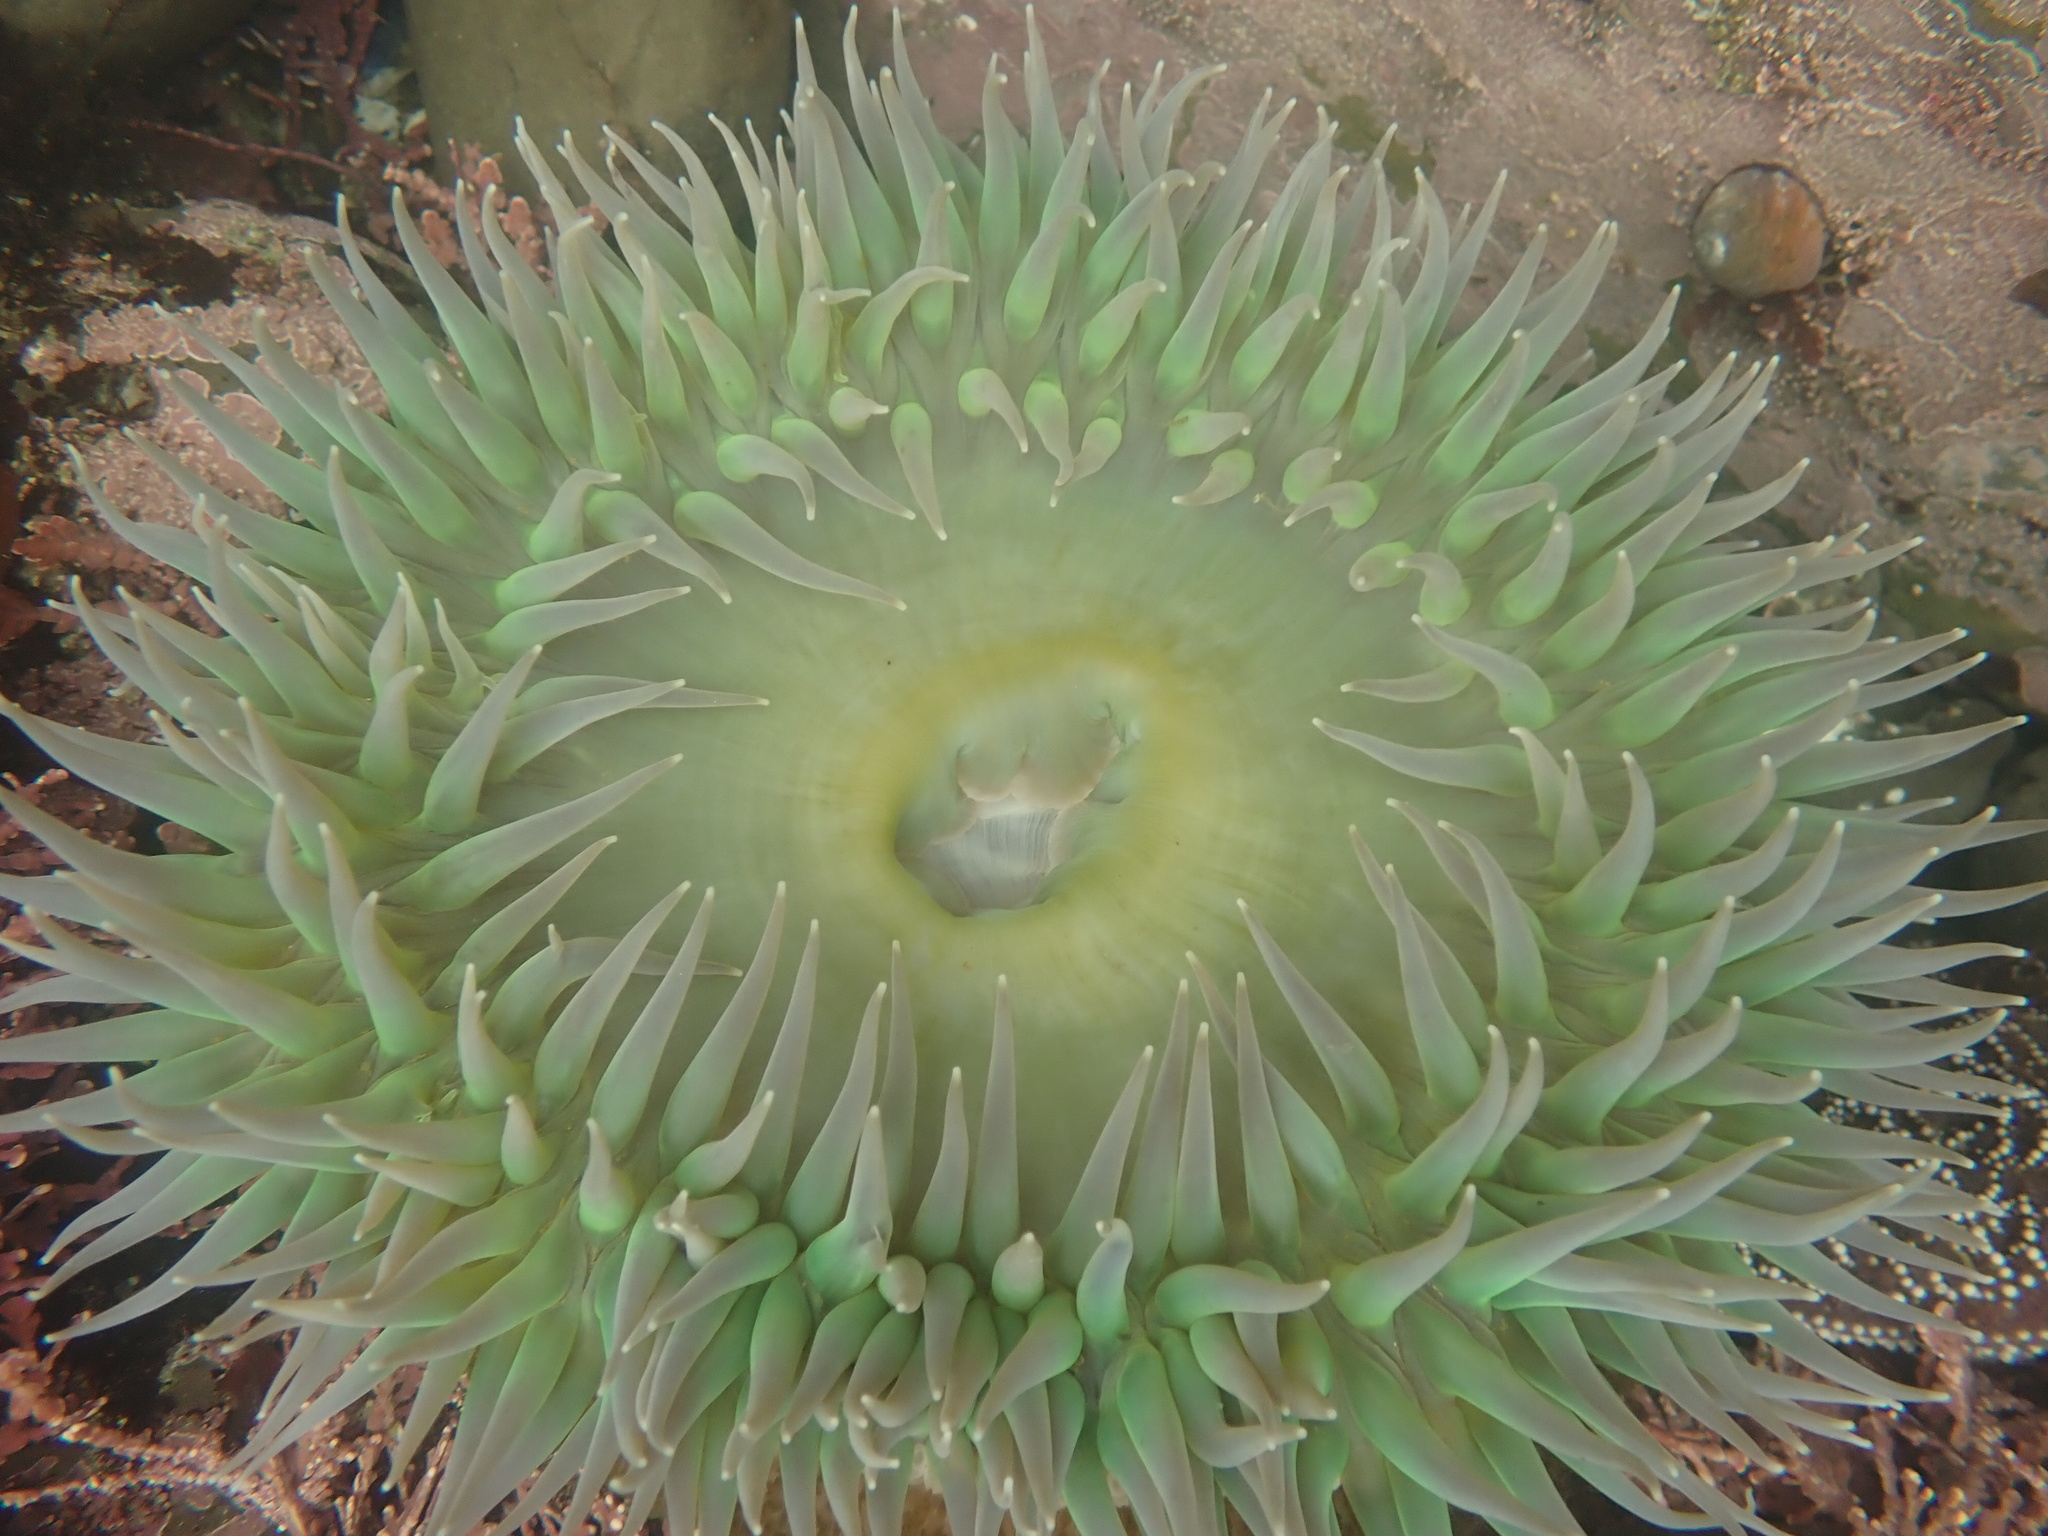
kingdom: Animalia
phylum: Cnidaria
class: Anthozoa
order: Actiniaria
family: Actiniidae
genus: Anthopleura
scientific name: Anthopleura xanthogrammica
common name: Giant green anemone
